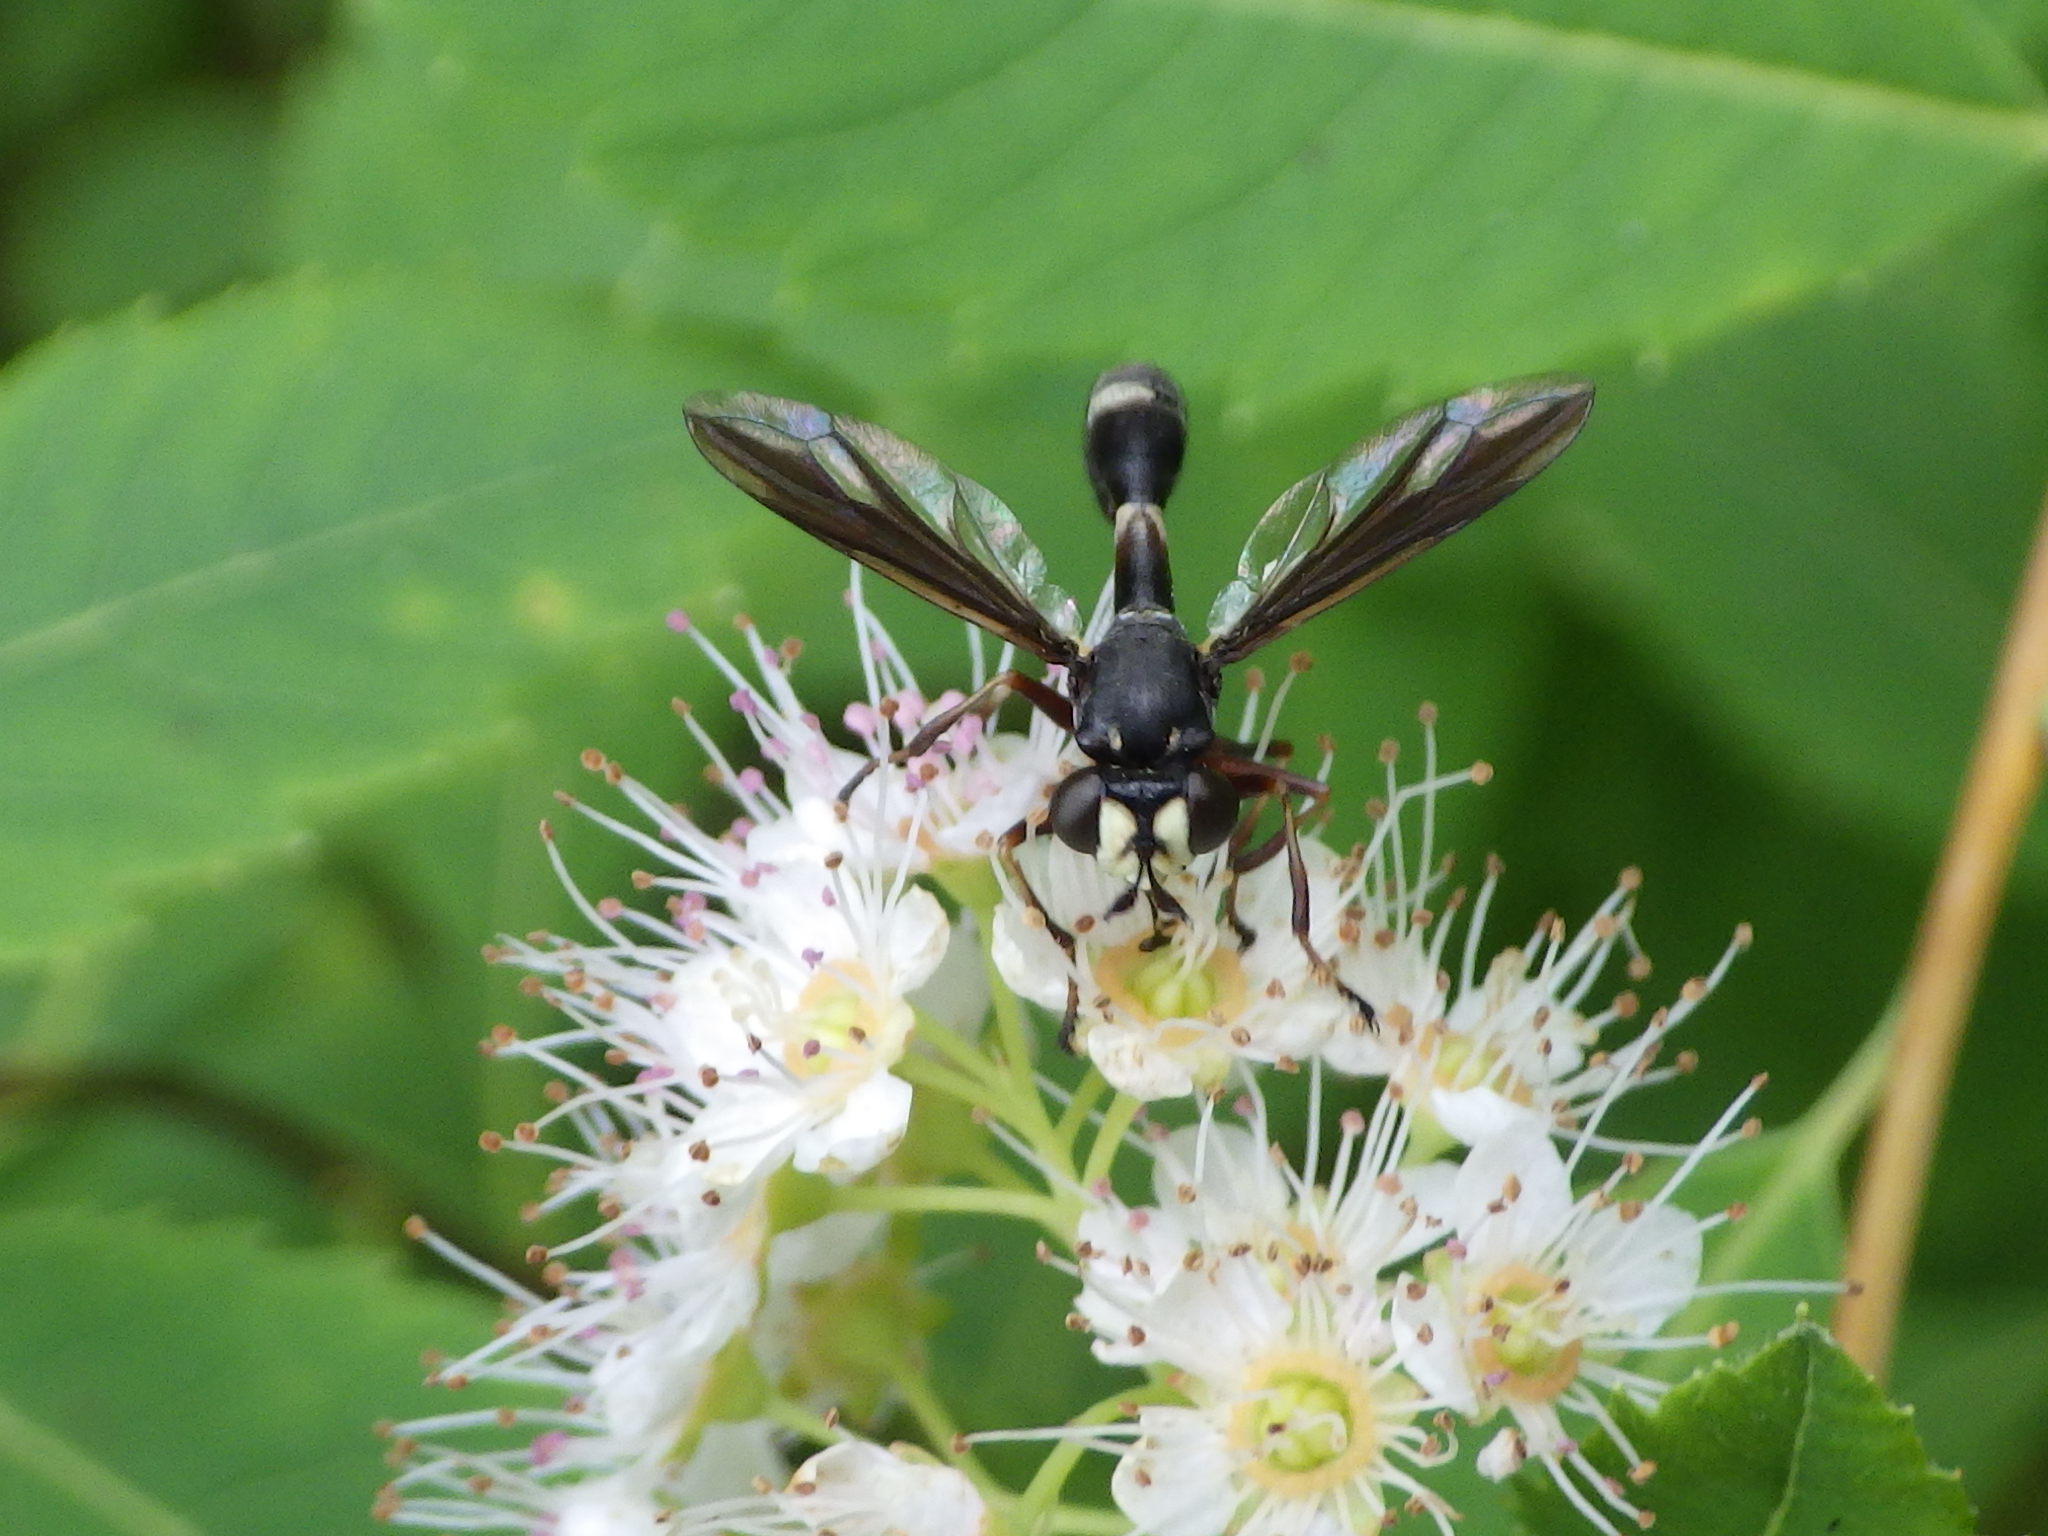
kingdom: Animalia
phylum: Arthropoda
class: Insecta
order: Diptera
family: Conopidae
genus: Physocephala
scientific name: Physocephala furcillata
